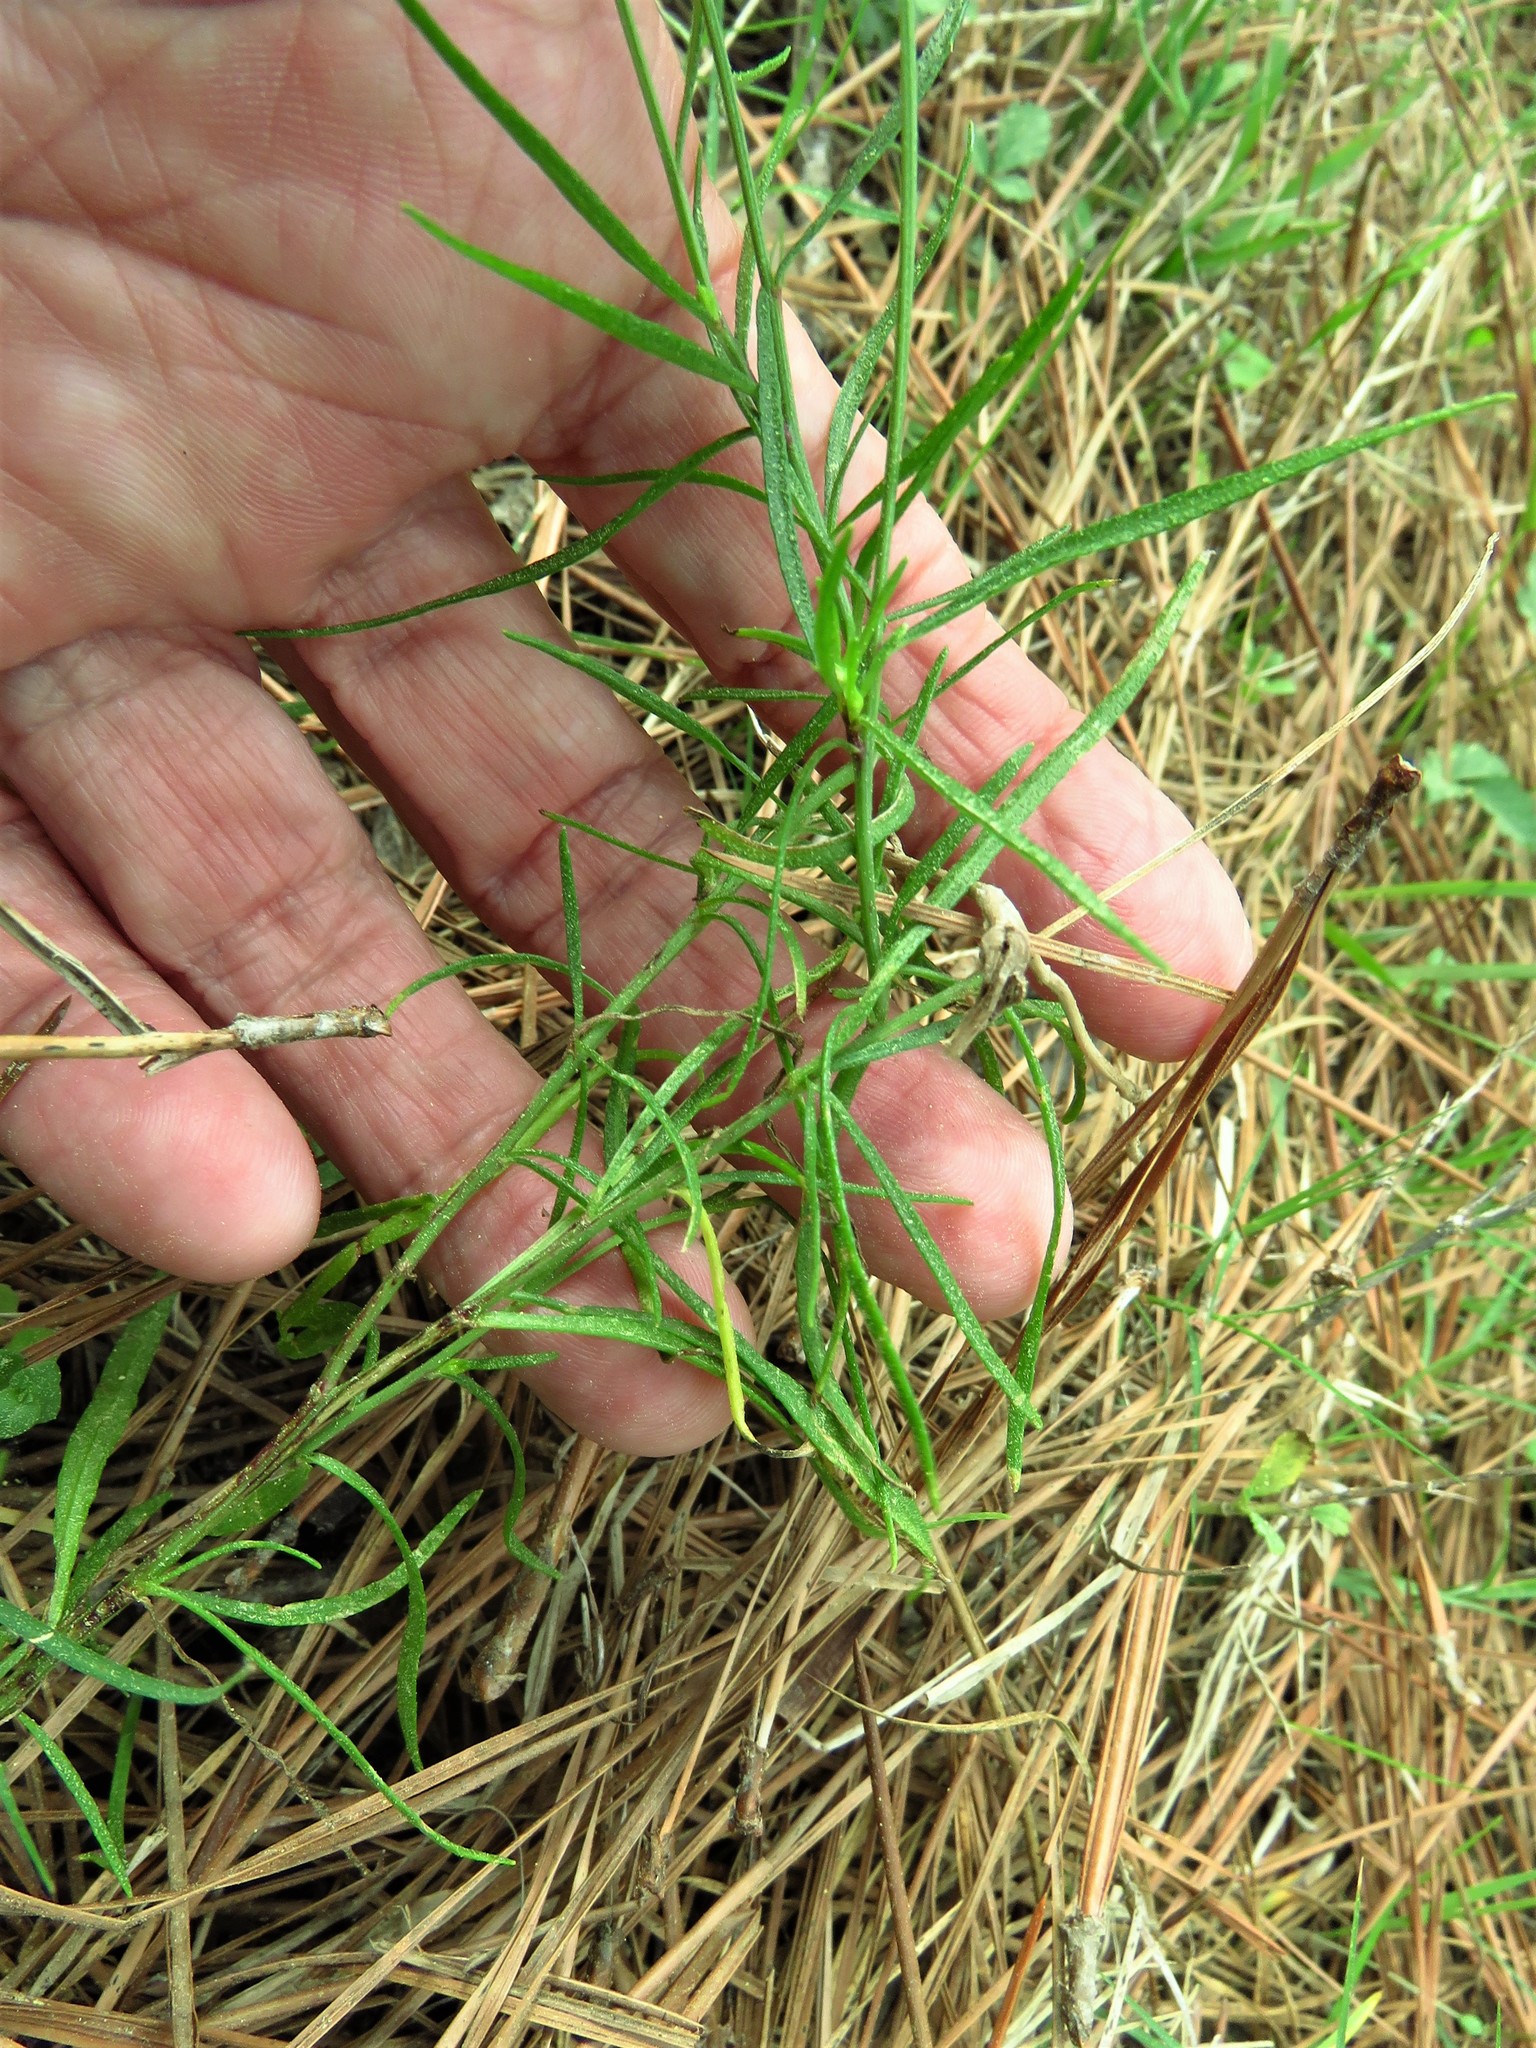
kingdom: Plantae
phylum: Tracheophyta
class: Magnoliopsida
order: Asterales
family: Asteraceae
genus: Helenium
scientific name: Helenium amarum
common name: Bitter sneezeweed
